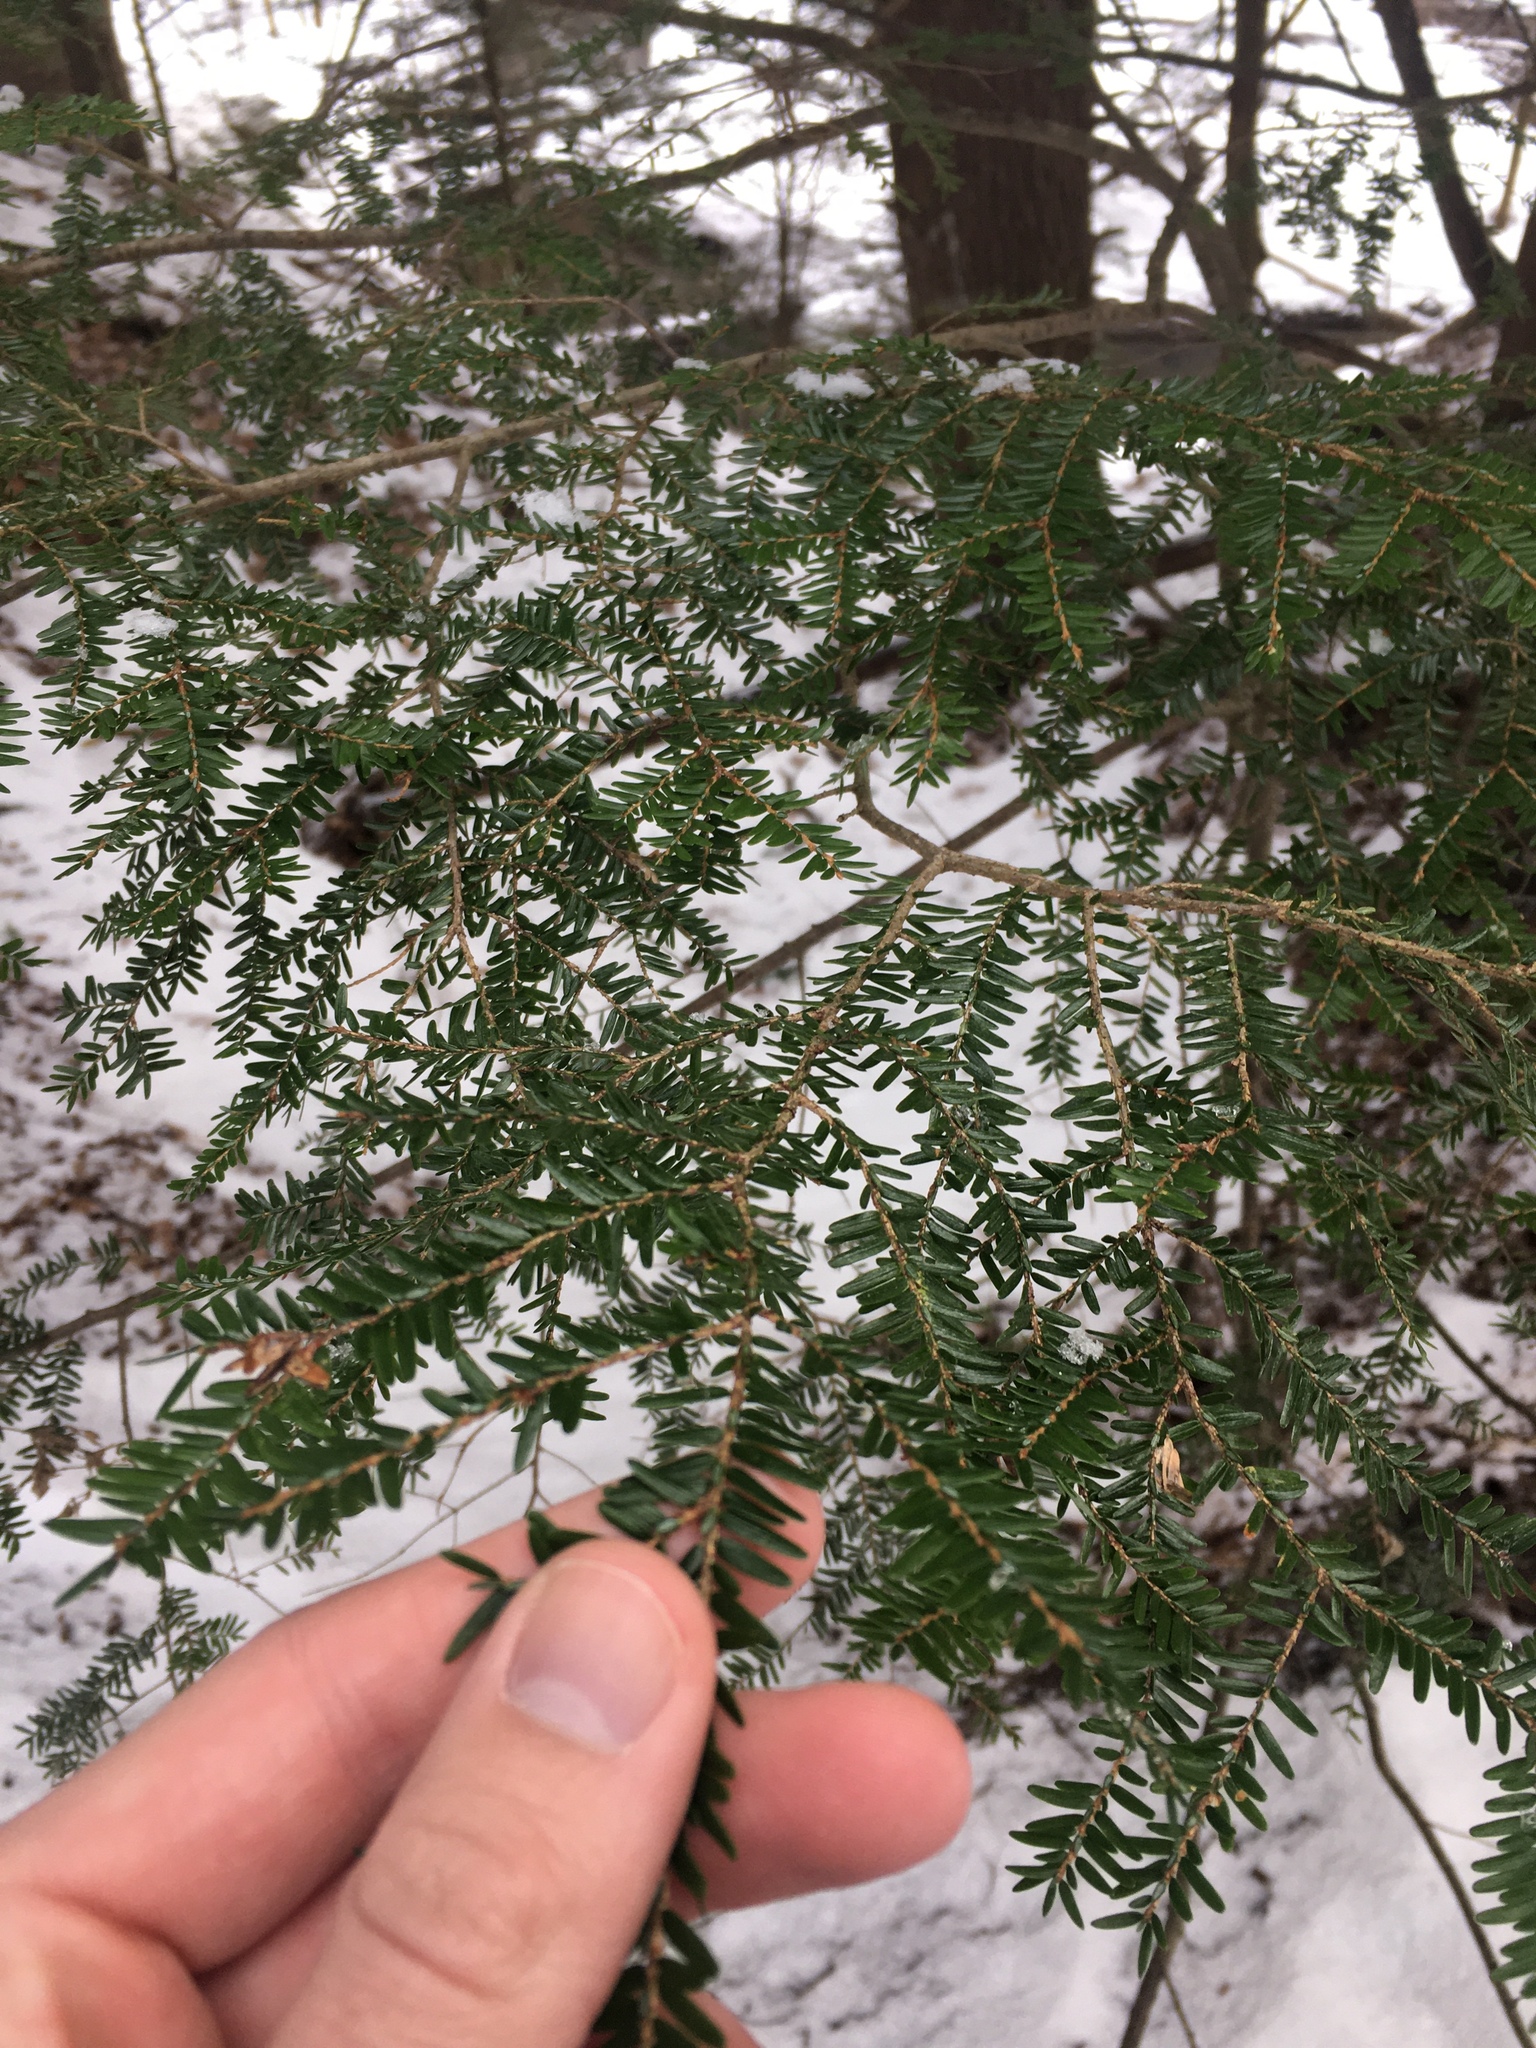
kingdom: Plantae
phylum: Tracheophyta
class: Pinopsida
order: Pinales
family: Pinaceae
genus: Tsuga
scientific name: Tsuga canadensis
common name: Eastern hemlock
